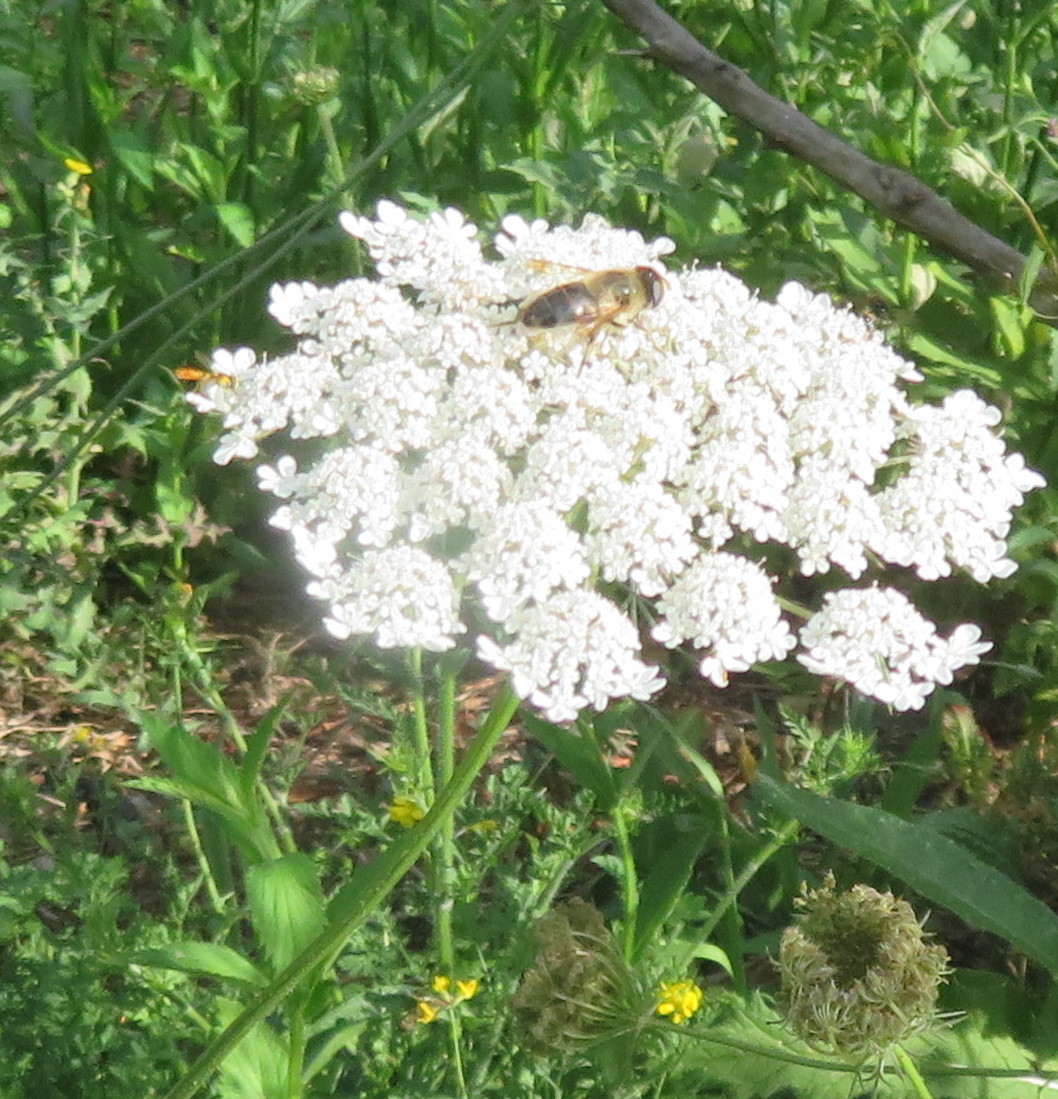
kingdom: Animalia
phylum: Arthropoda
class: Insecta
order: Diptera
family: Syrphidae
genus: Eristalis
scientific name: Eristalis tenax
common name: Drone fly
